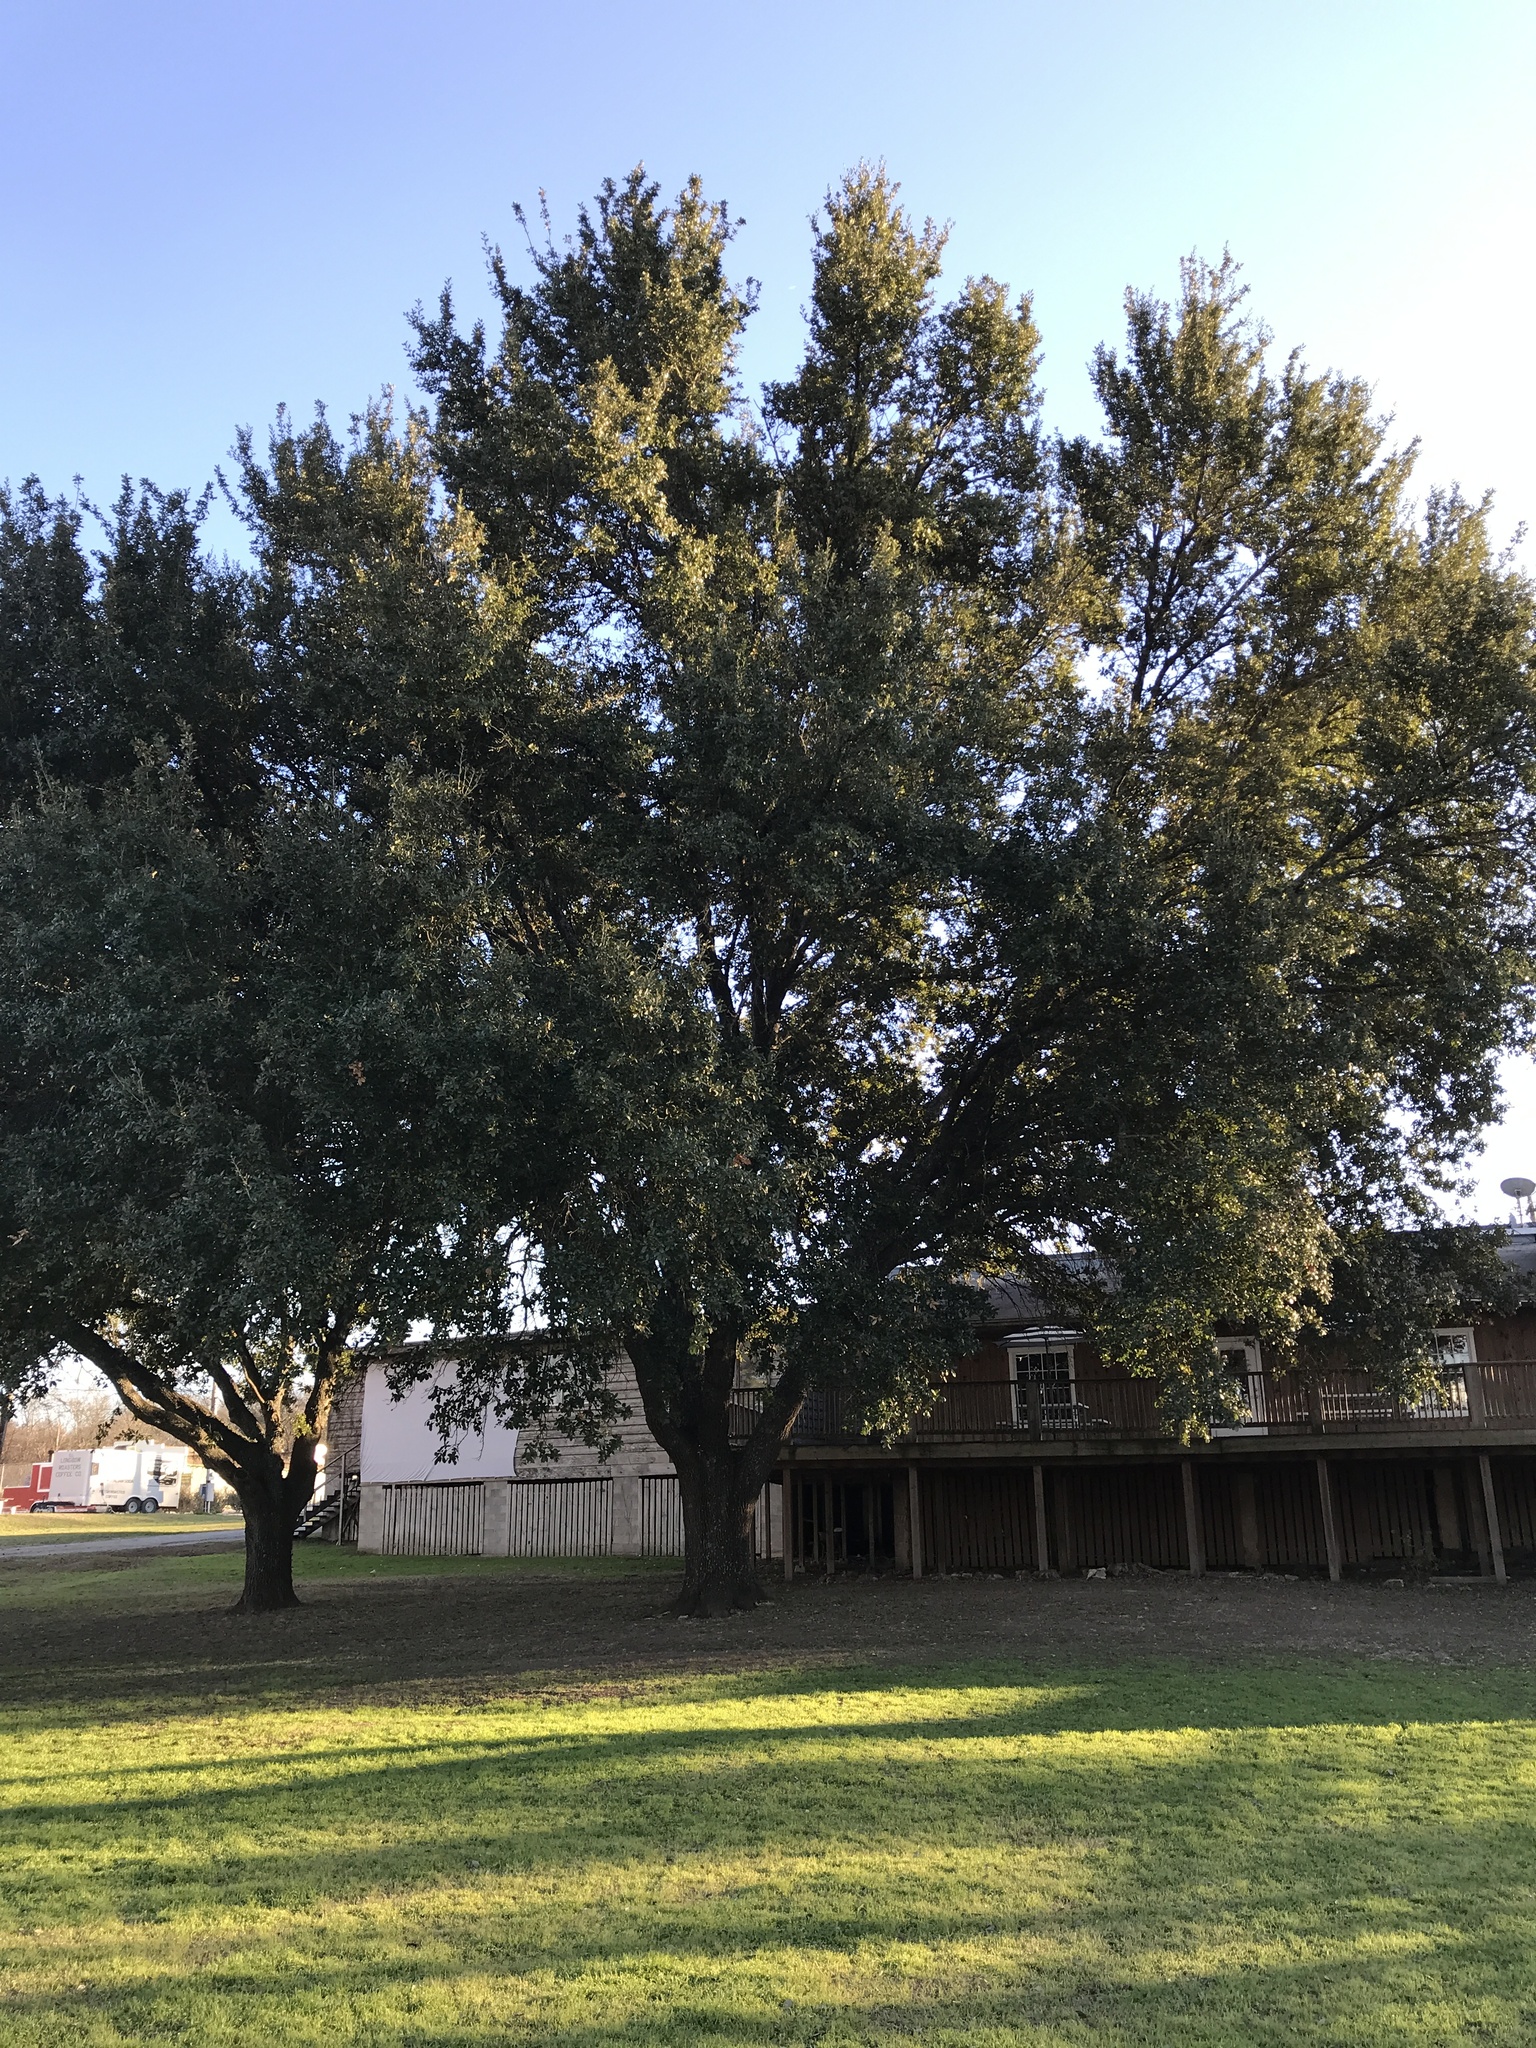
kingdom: Plantae
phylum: Tracheophyta
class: Magnoliopsida
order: Fagales
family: Fagaceae
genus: Quercus
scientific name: Quercus virginiana
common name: Southern live oak
